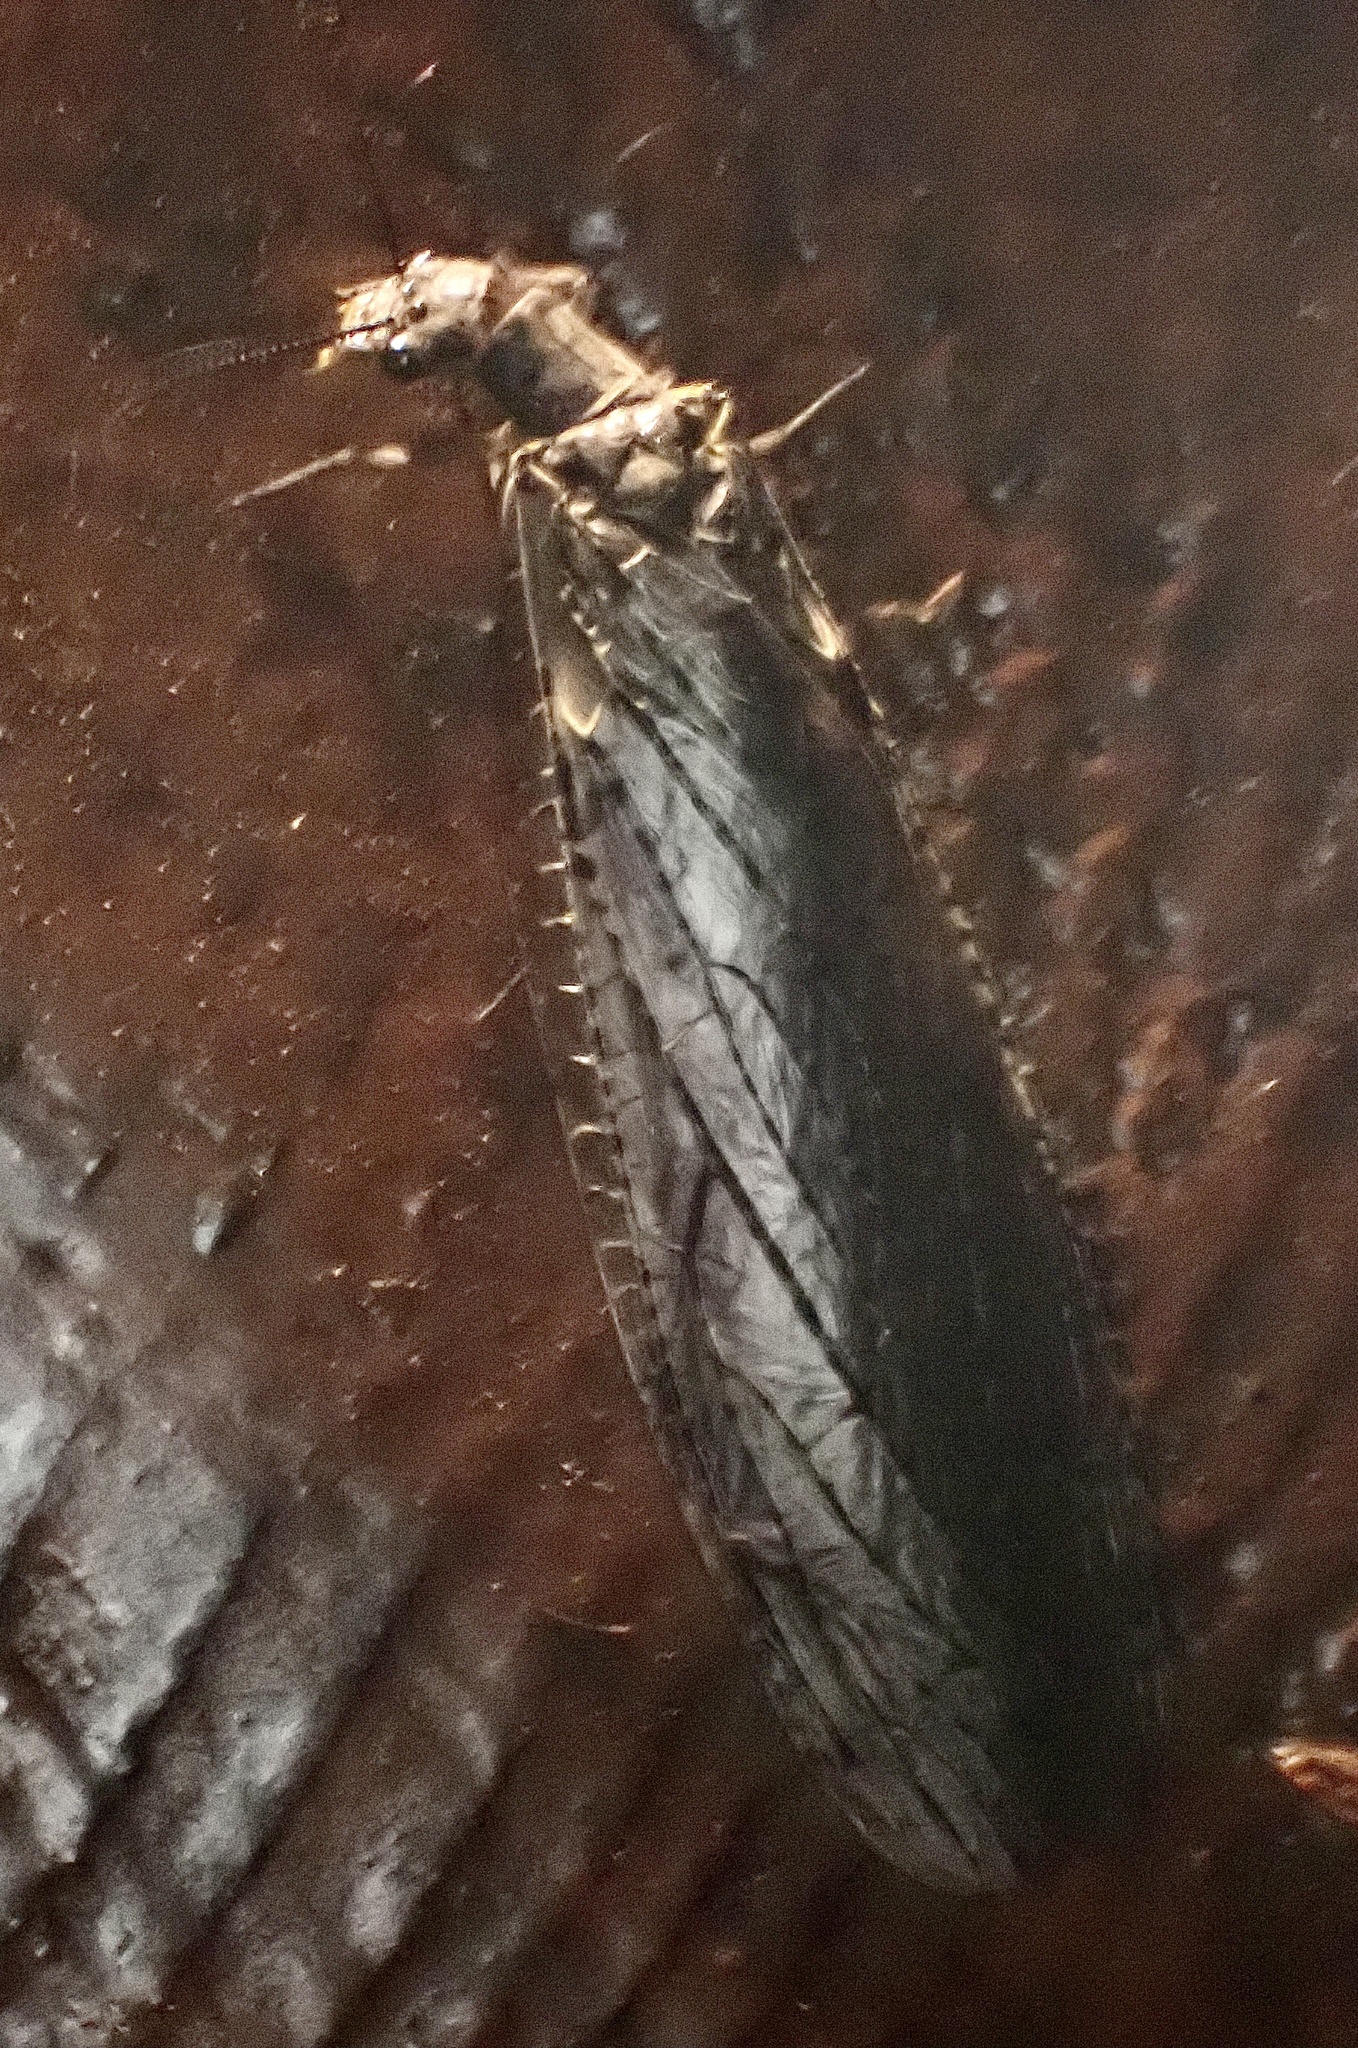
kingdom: Animalia
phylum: Arthropoda
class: Insecta
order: Megaloptera
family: Corydalidae
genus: Chauliodes
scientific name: Chauliodes rastricornis
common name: Spring fishfly
